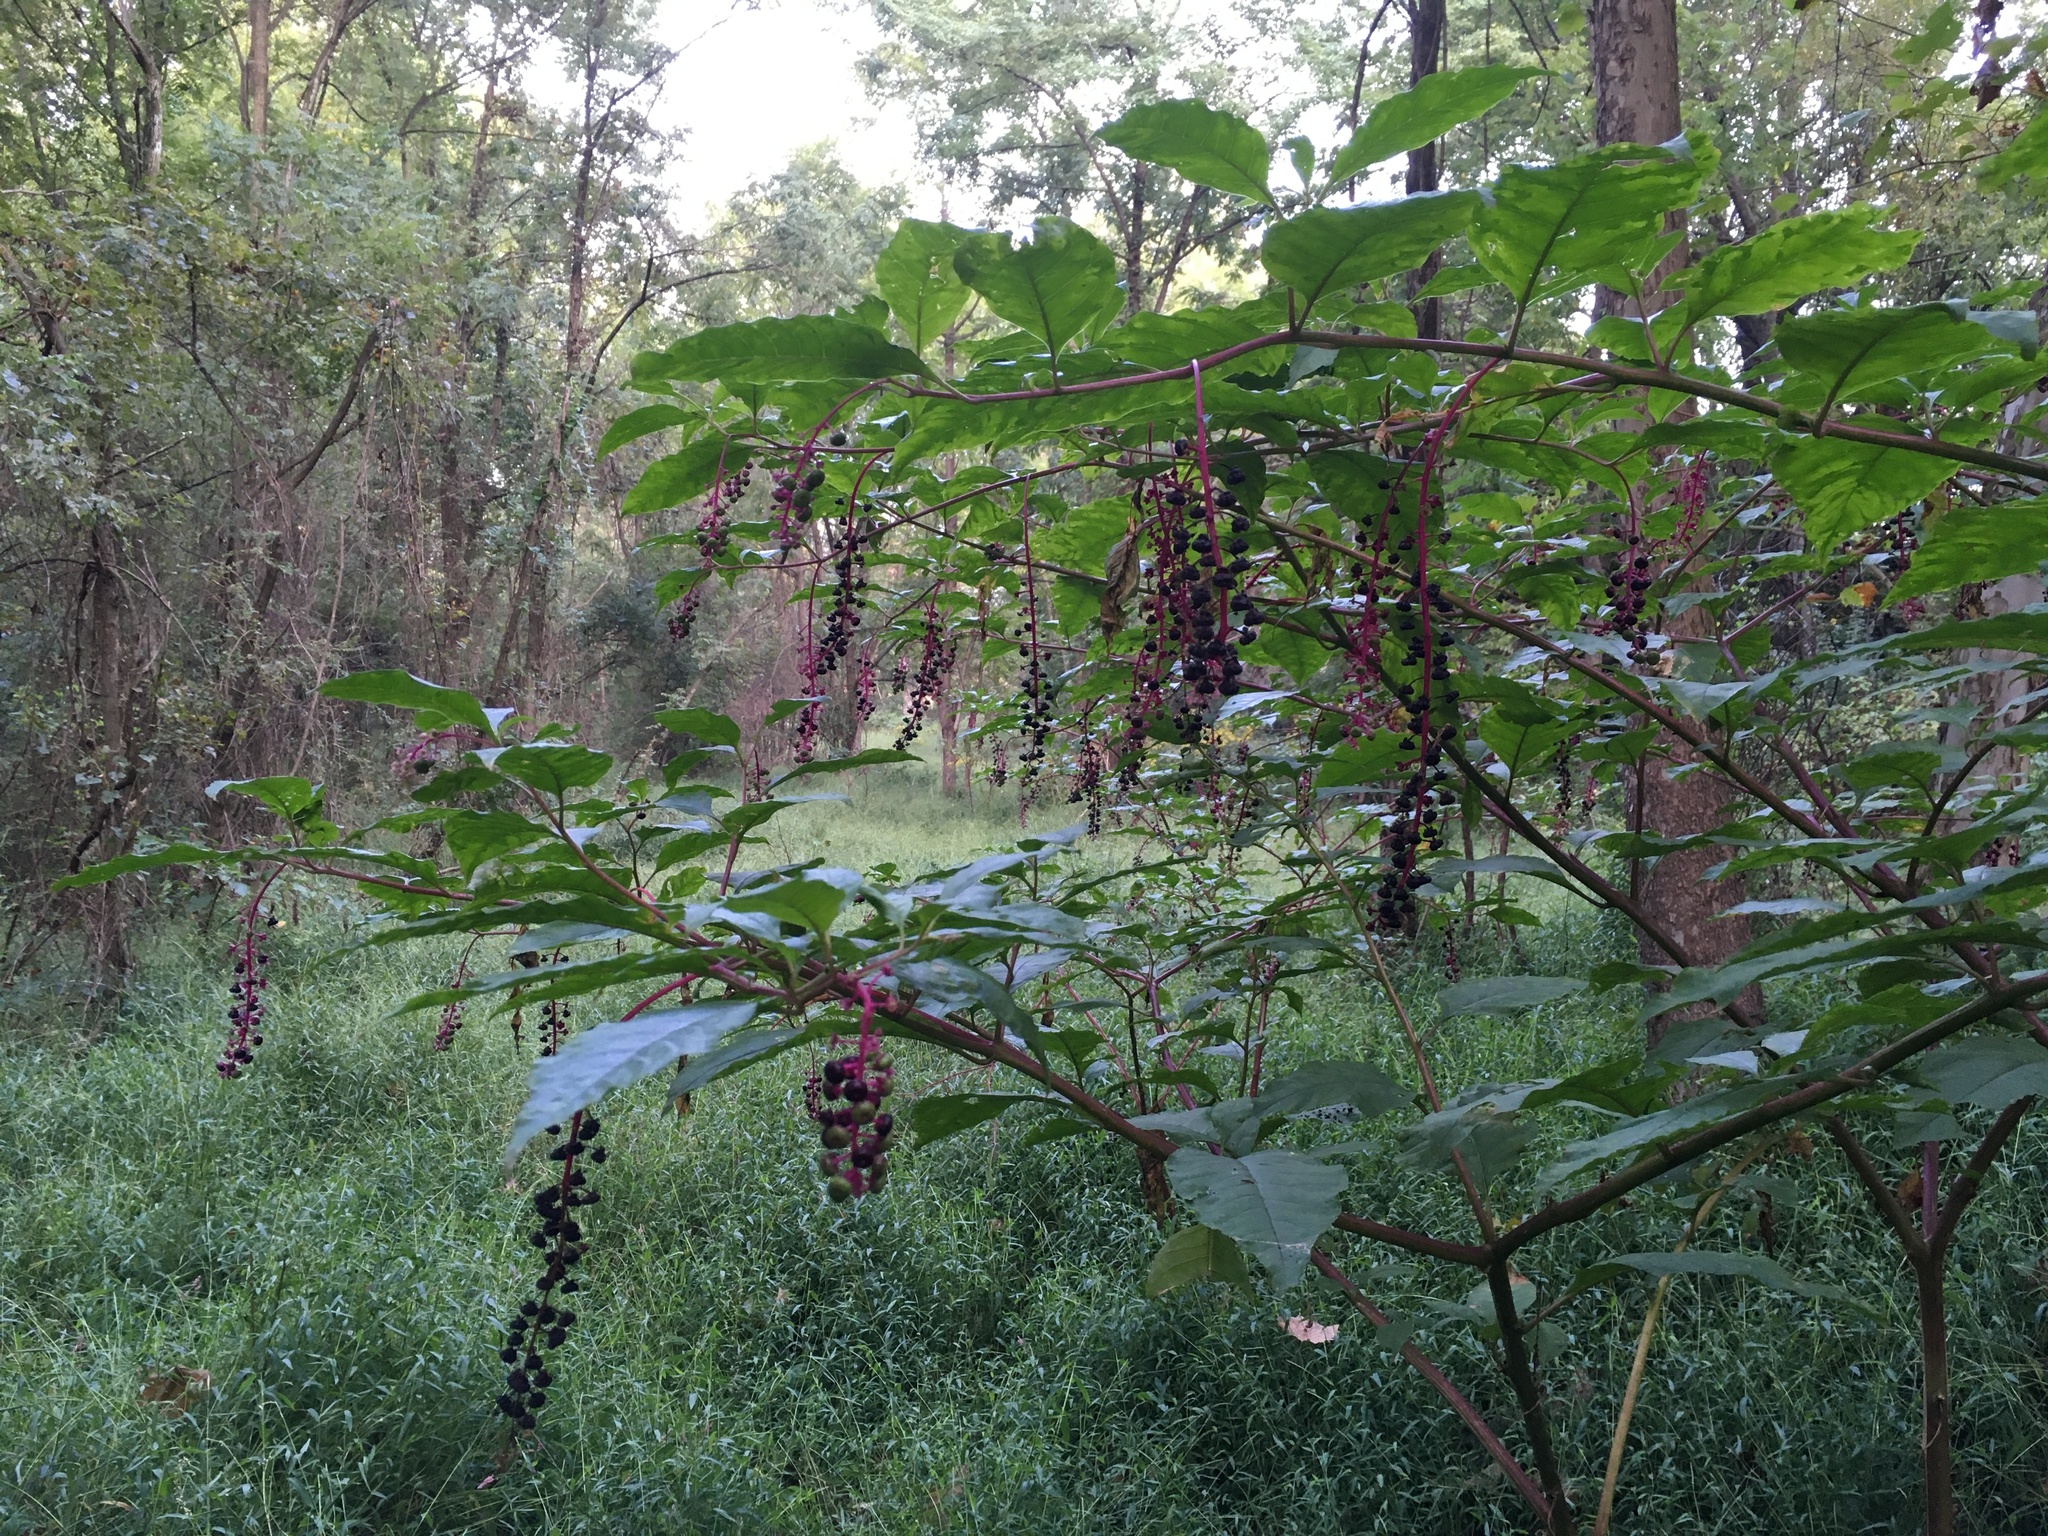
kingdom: Plantae
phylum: Tracheophyta
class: Magnoliopsida
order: Caryophyllales
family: Phytolaccaceae
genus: Phytolacca
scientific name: Phytolacca americana
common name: American pokeweed
